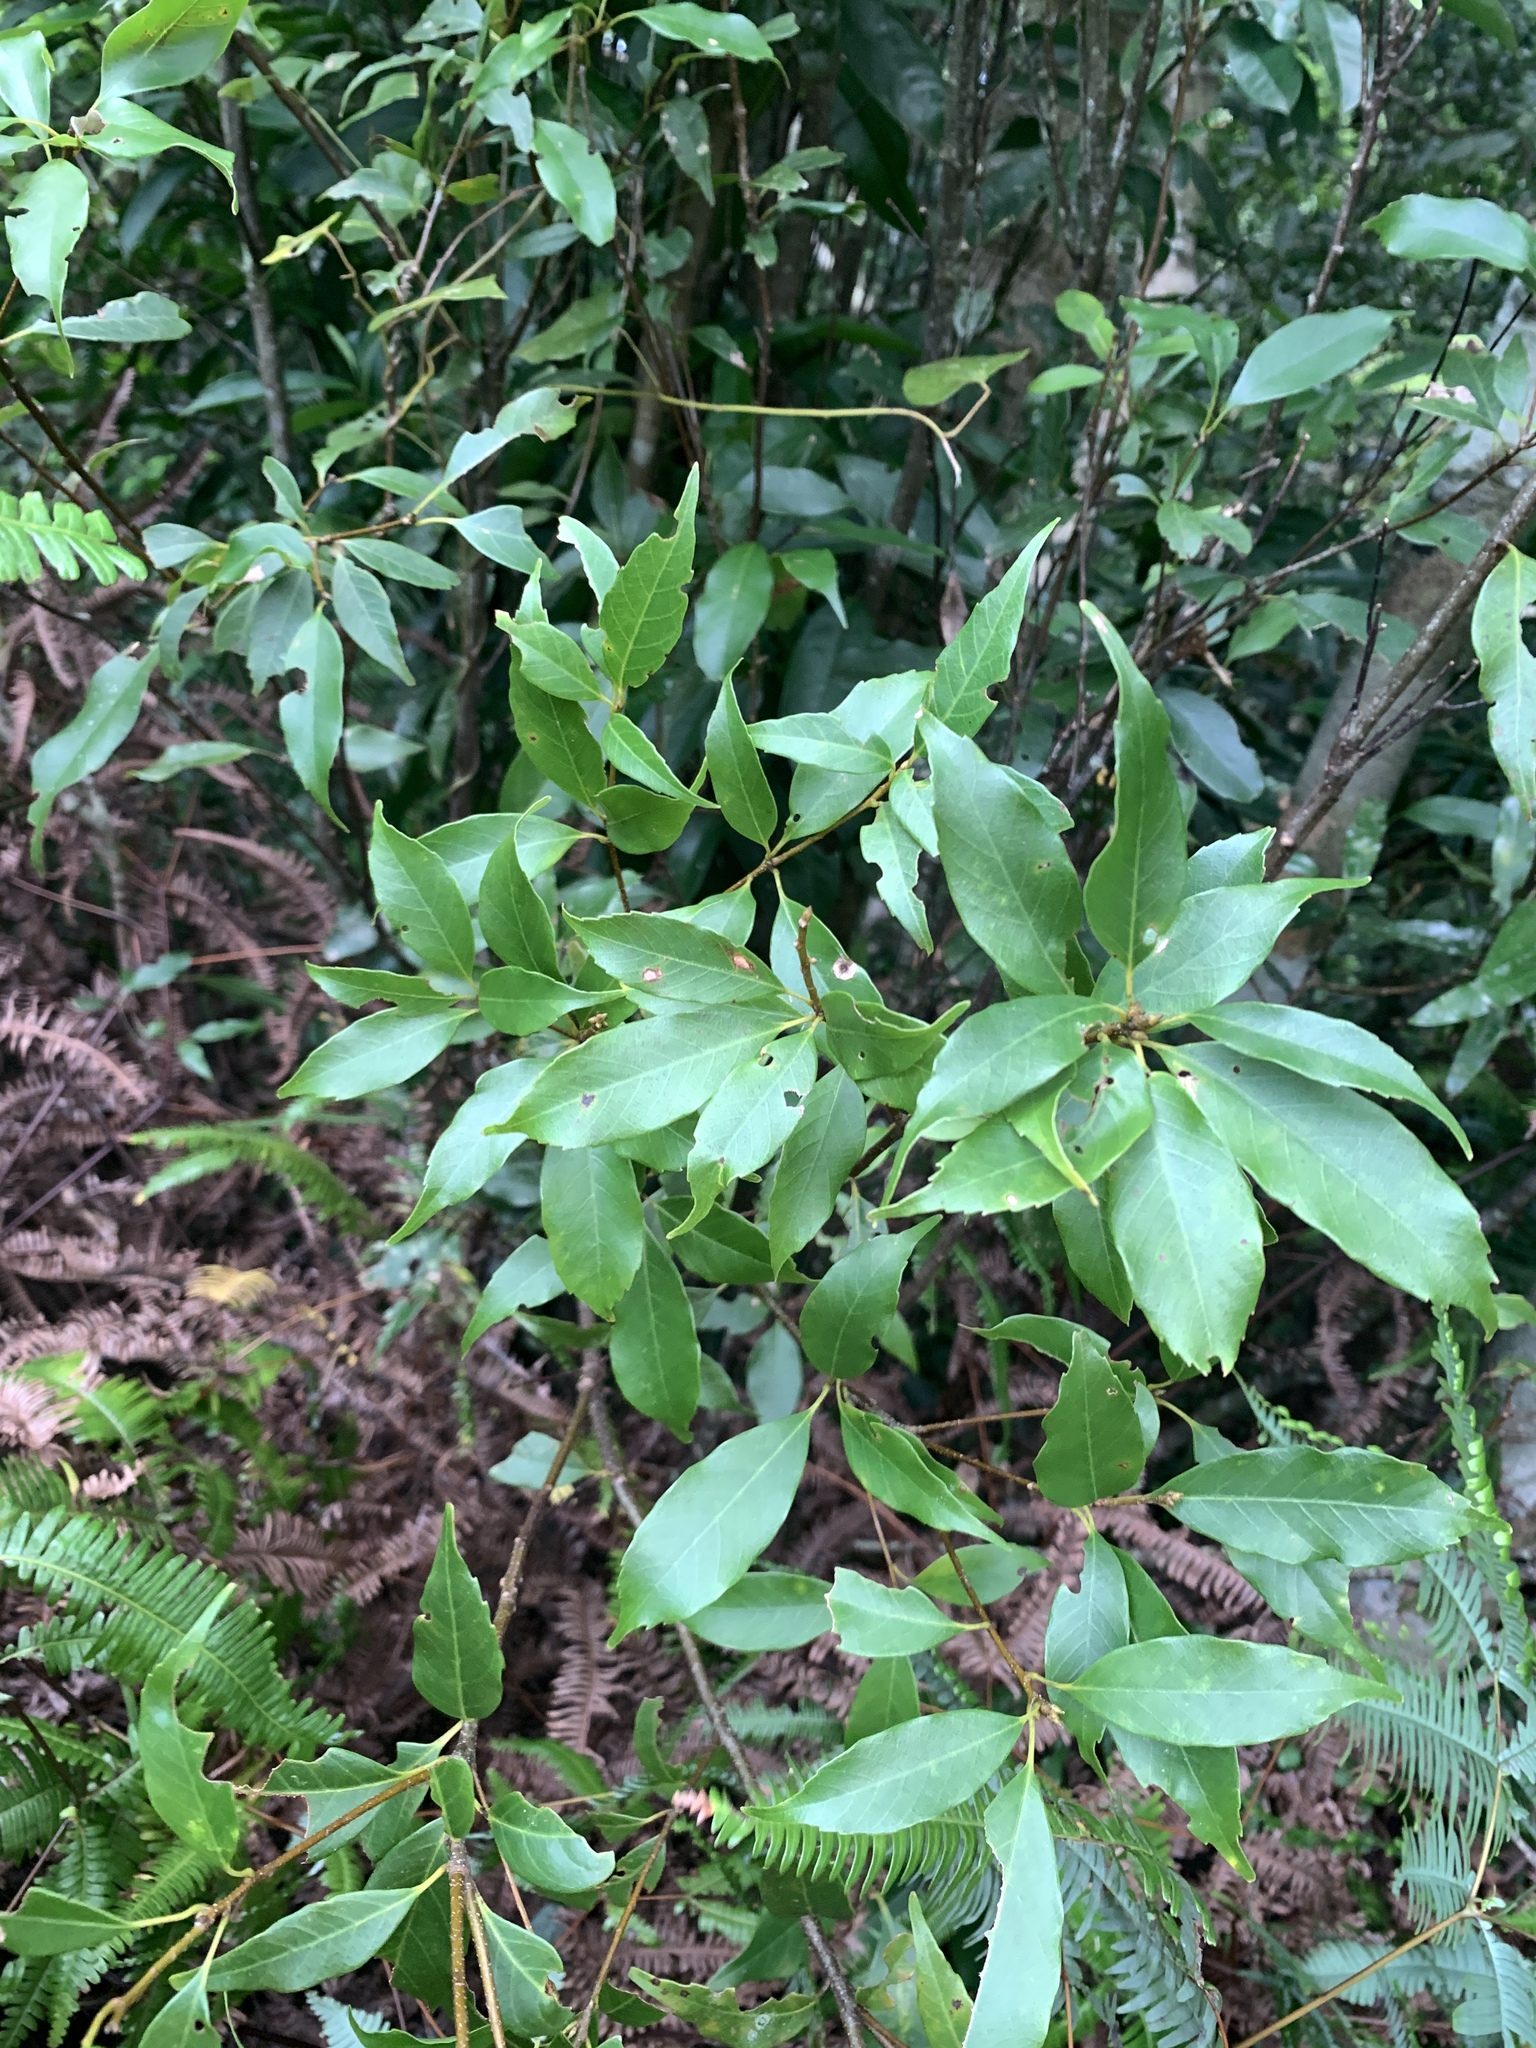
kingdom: Plantae
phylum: Tracheophyta
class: Magnoliopsida
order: Fagales
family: Fagaceae
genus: Quercus
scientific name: Quercus longinux
